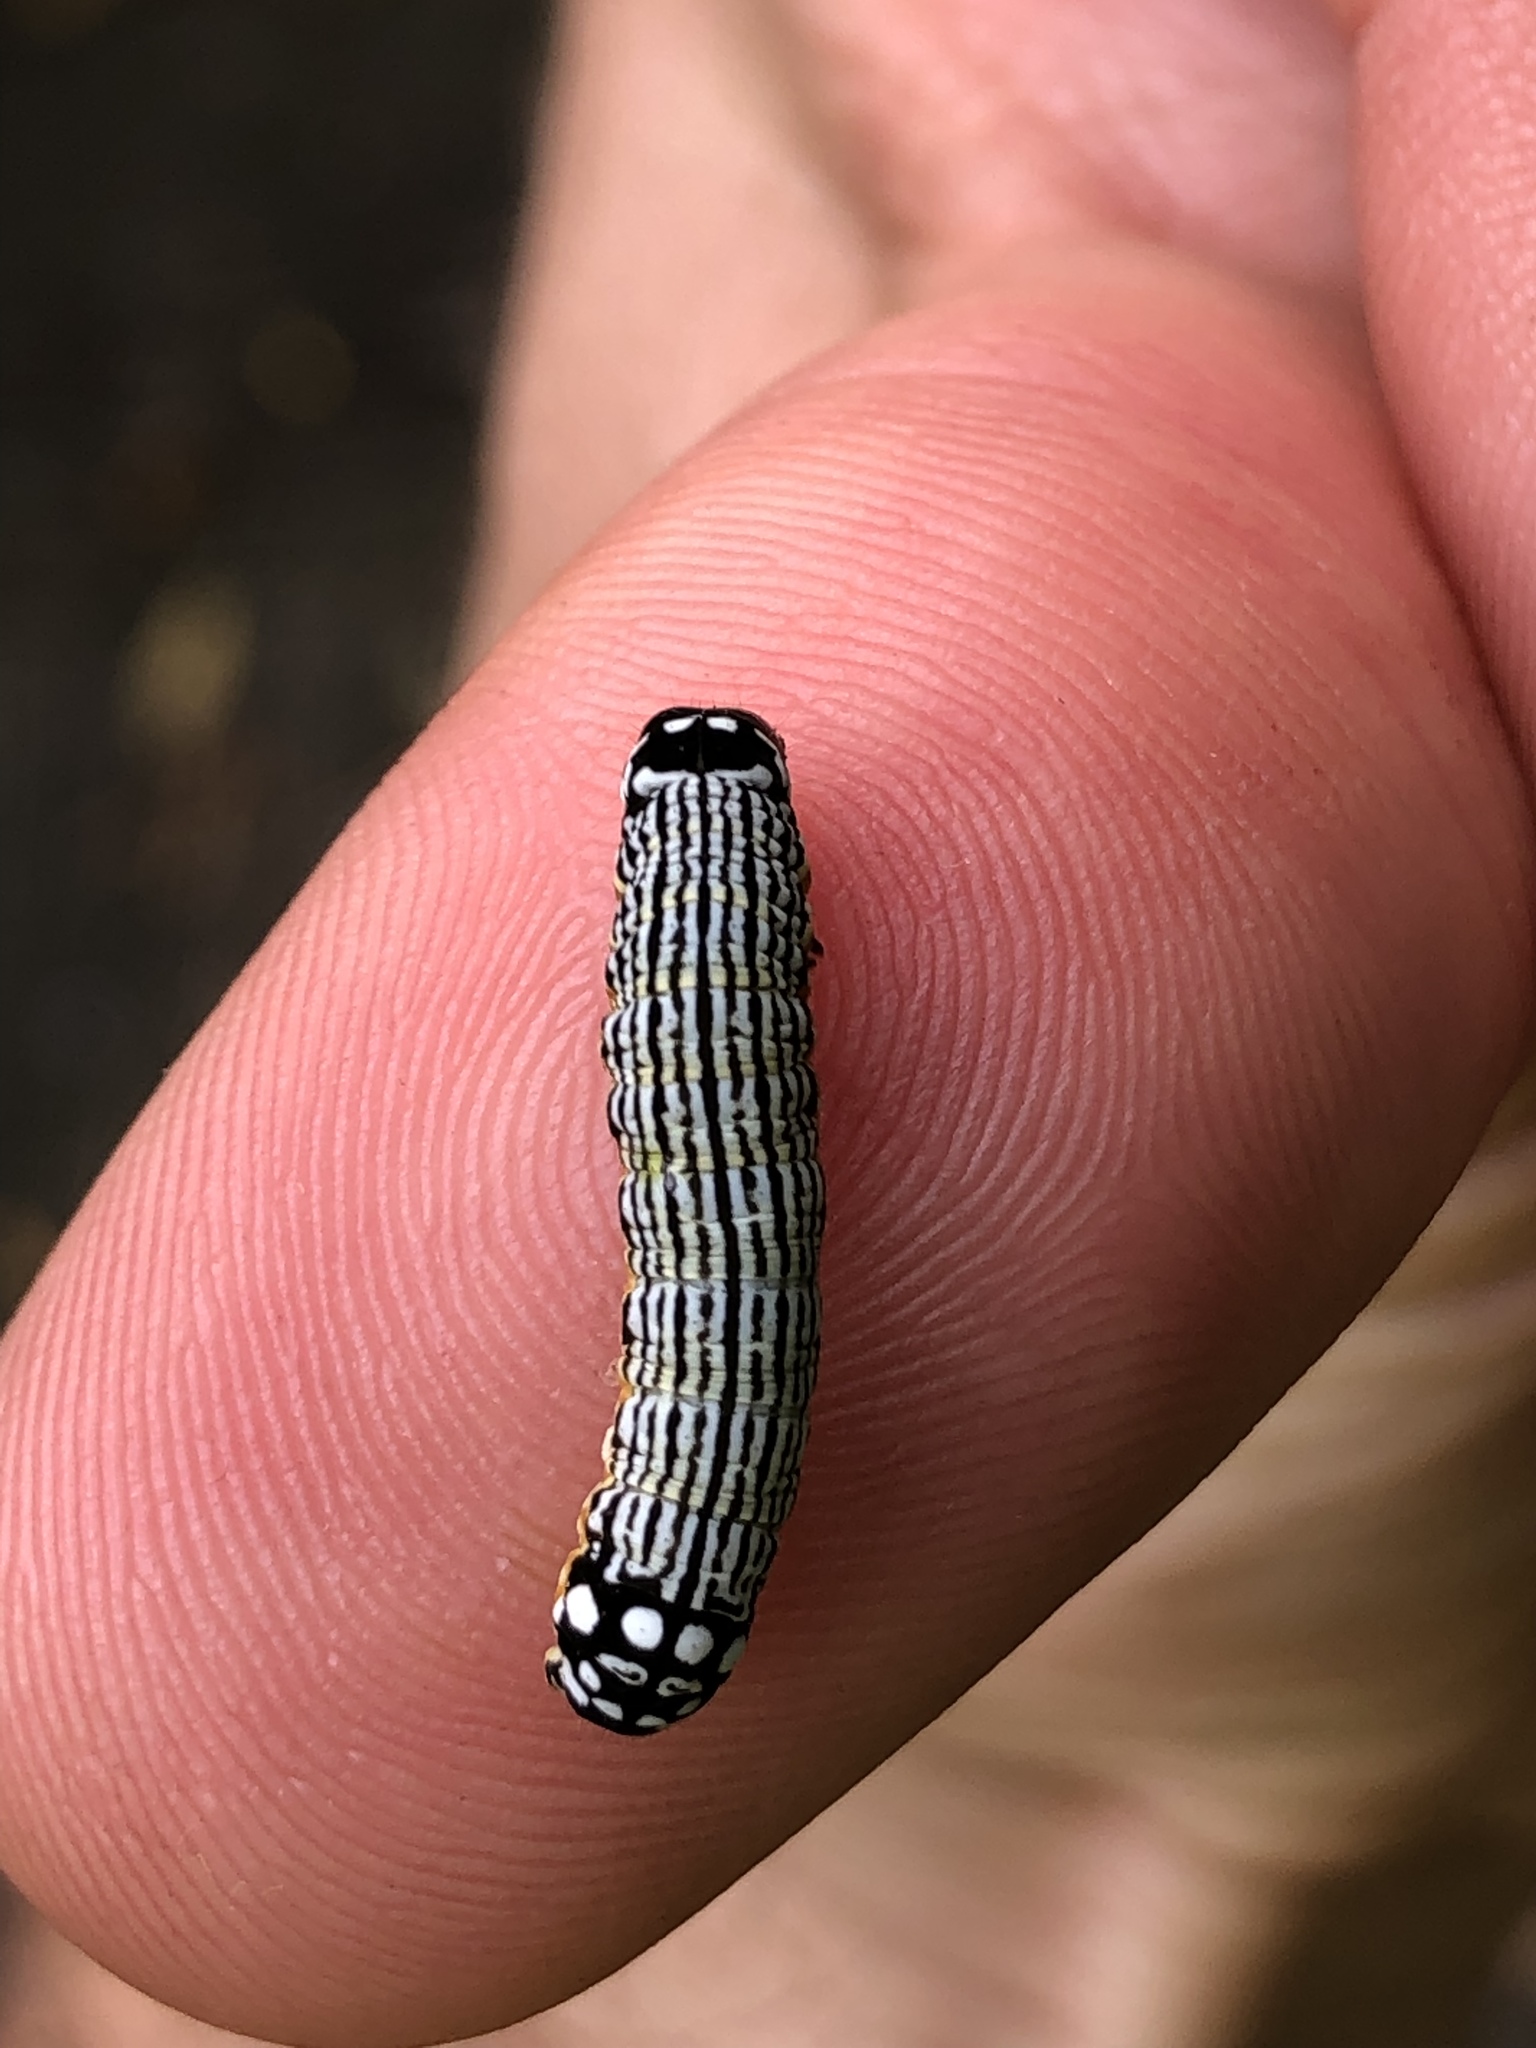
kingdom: Animalia
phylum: Arthropoda
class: Insecta
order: Lepidoptera
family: Noctuidae
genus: Phosphila
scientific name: Phosphila turbulenta
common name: Turbulent phosphila moth
